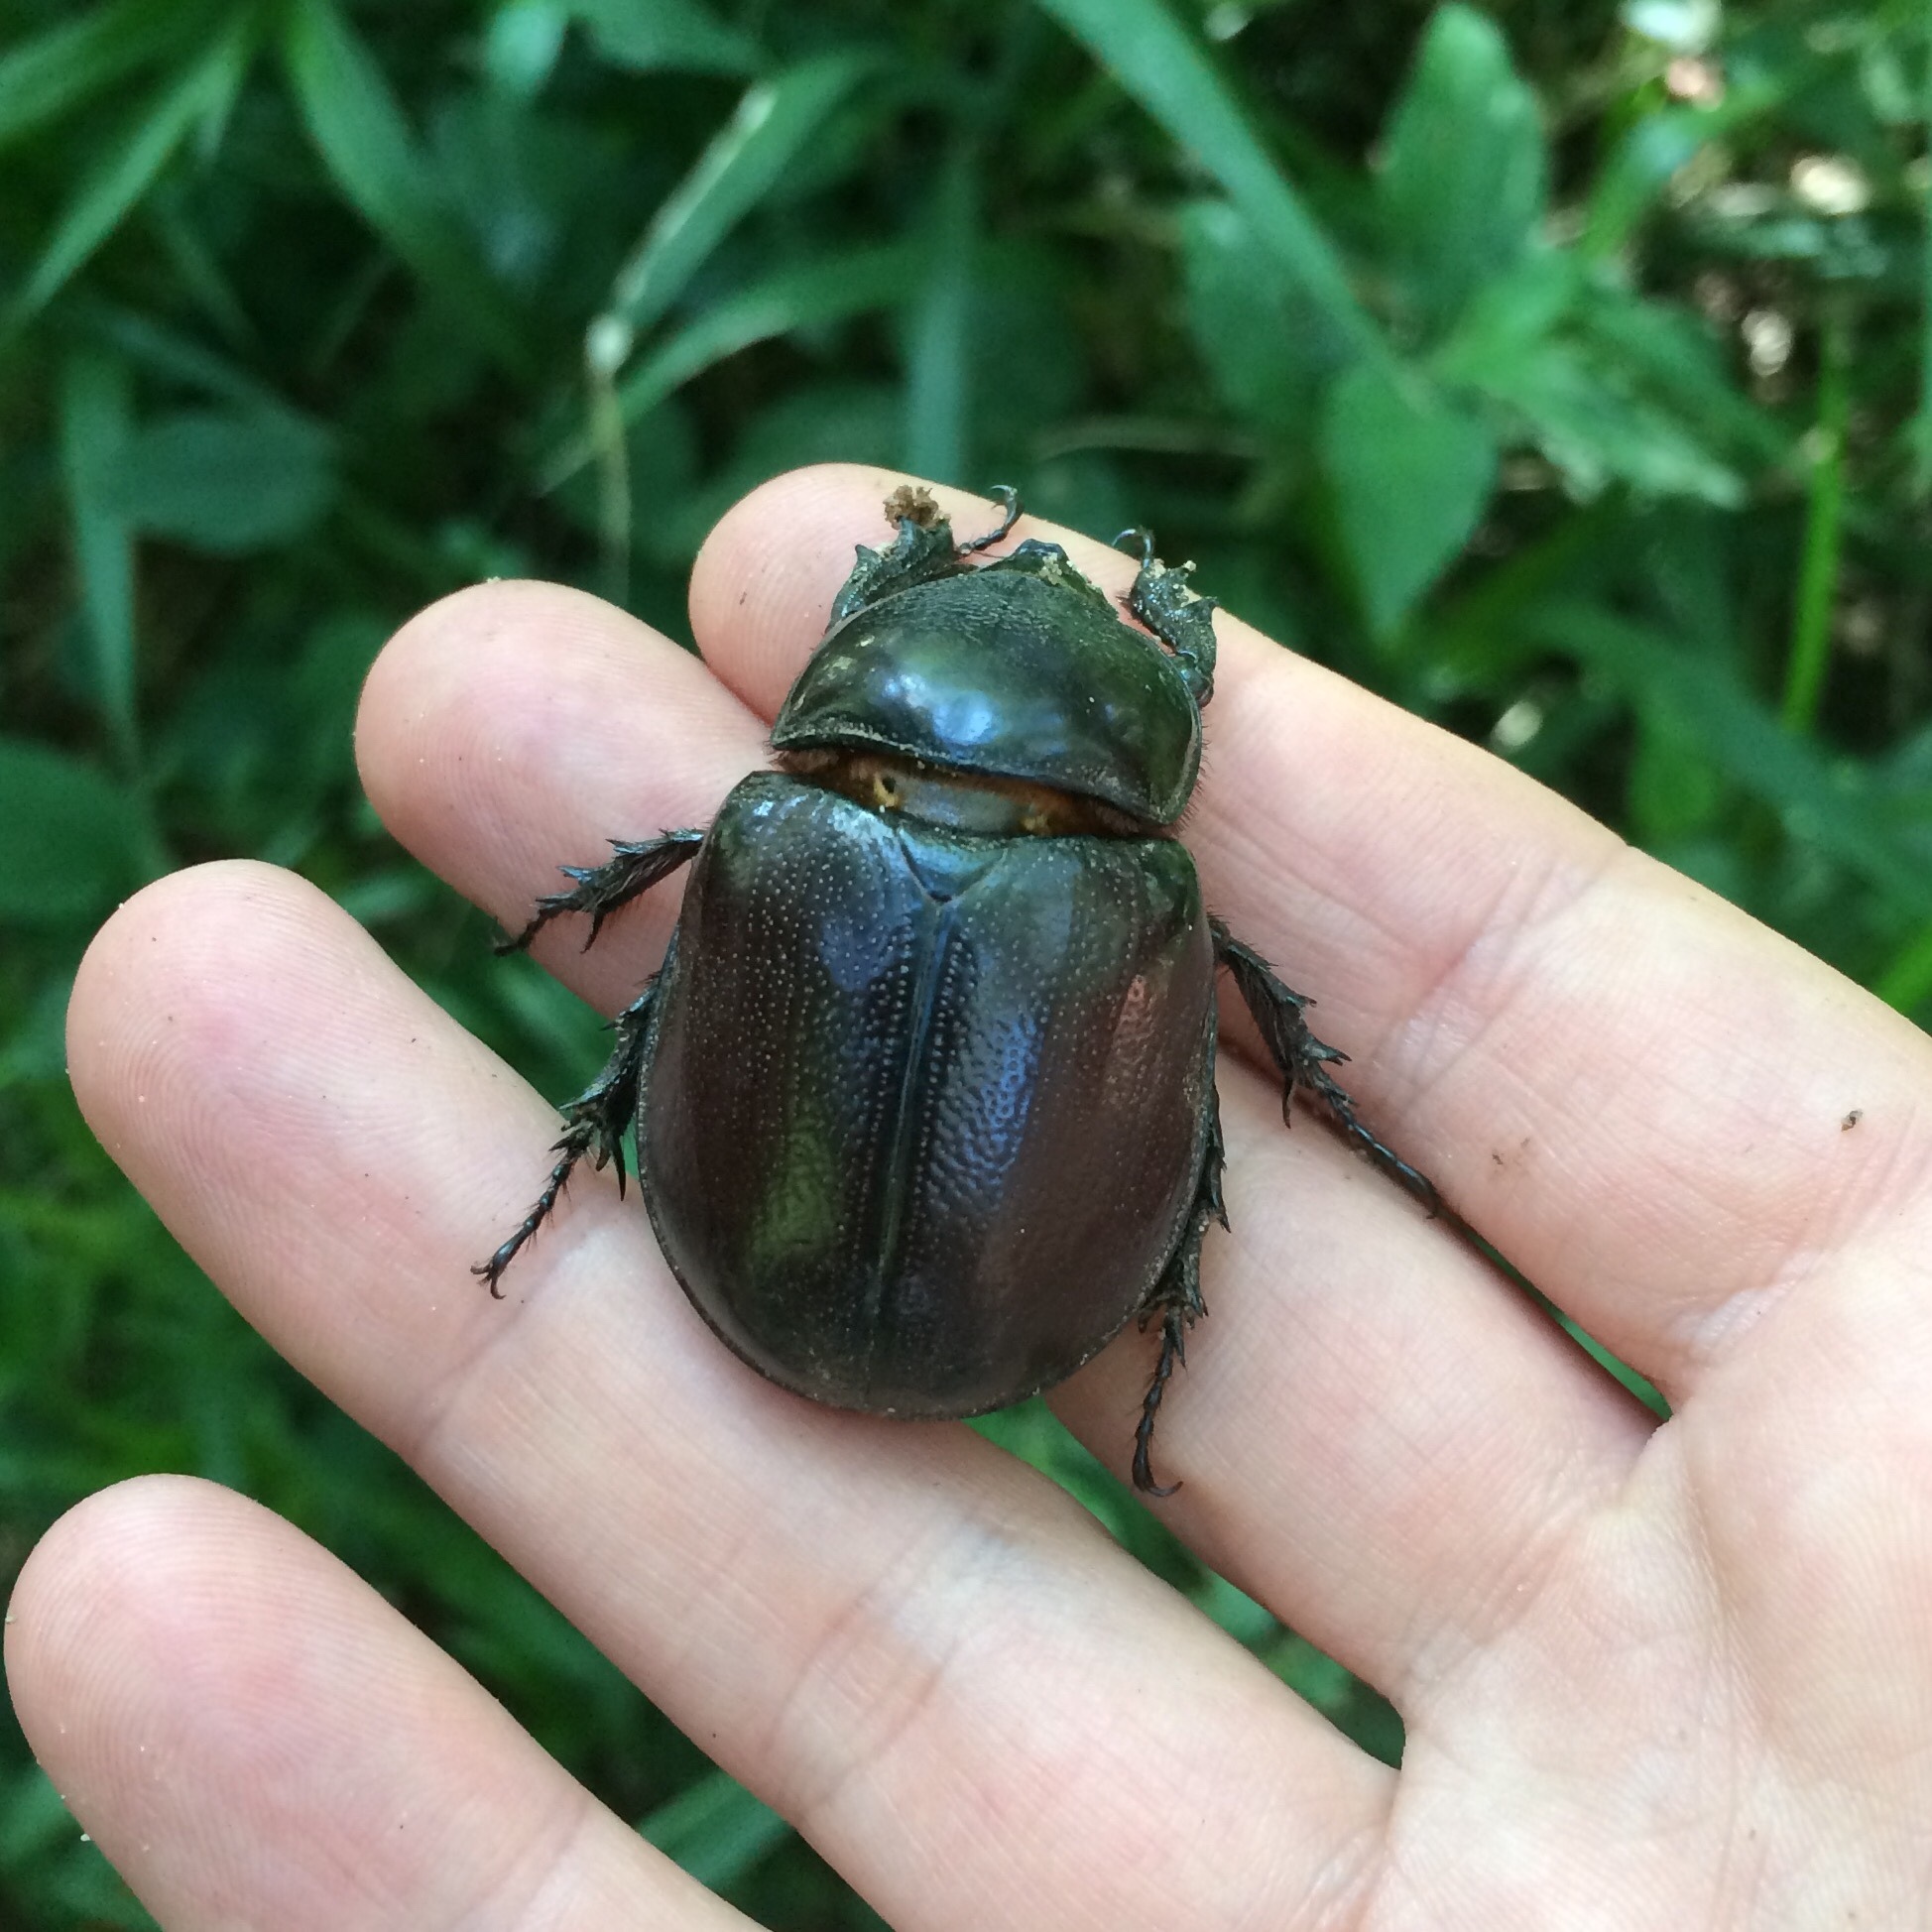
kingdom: Animalia
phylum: Arthropoda
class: Insecta
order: Coleoptera
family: Scarabaeidae
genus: Macrocyphonistes
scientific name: Macrocyphonistes kolbeanus
